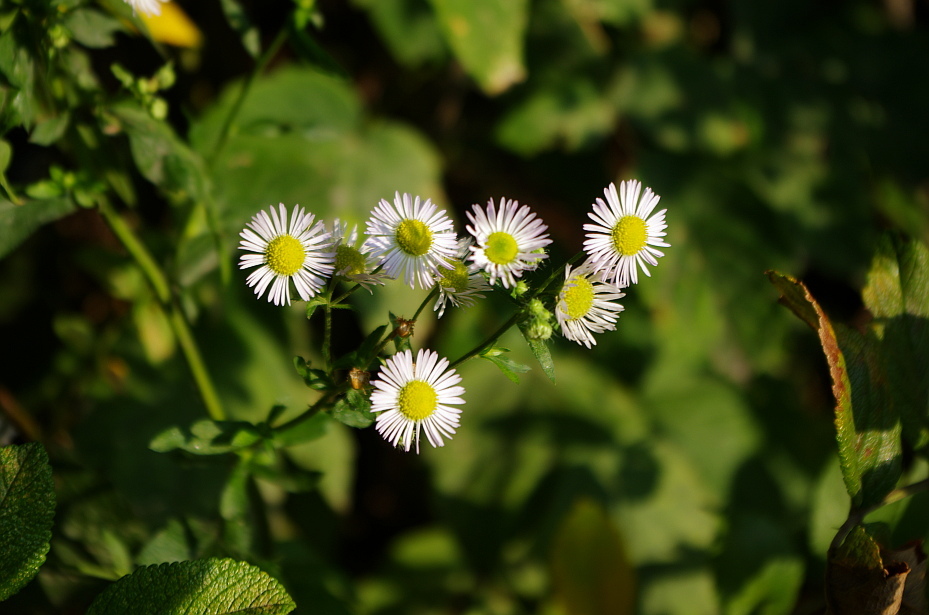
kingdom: Plantae
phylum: Tracheophyta
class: Magnoliopsida
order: Asterales
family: Asteraceae
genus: Erigeron
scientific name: Erigeron annuus
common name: Tall fleabane
